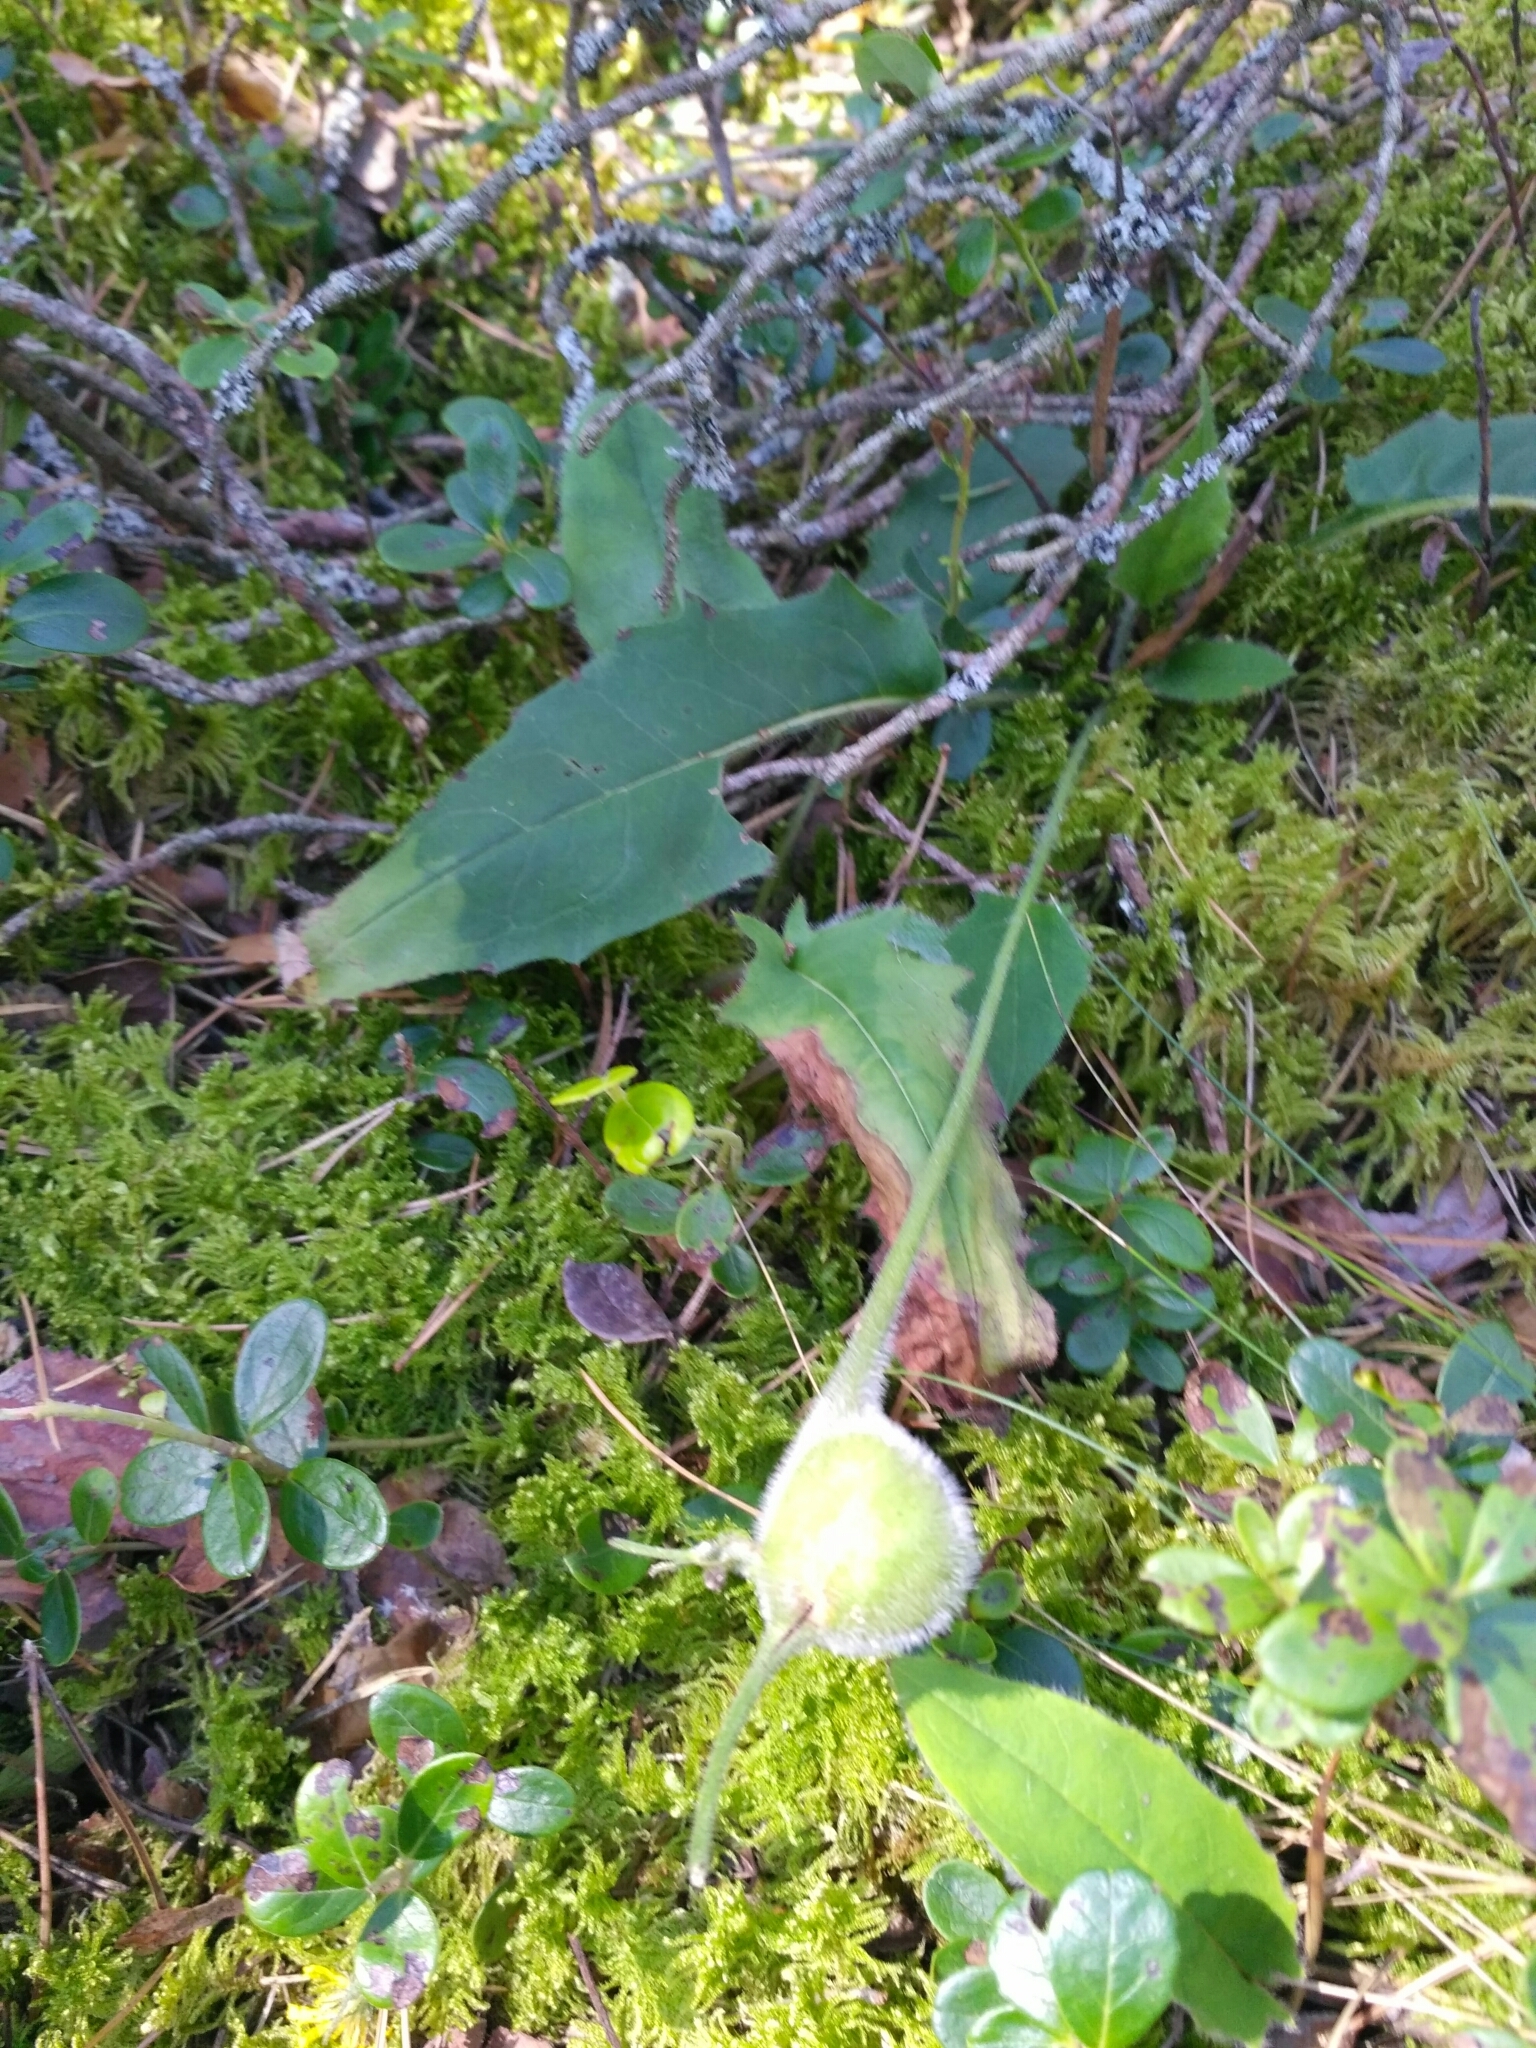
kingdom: Animalia
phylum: Arthropoda
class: Insecta
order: Hymenoptera
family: Cynipidae
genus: Aulacidea
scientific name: Aulacidea hieracii
